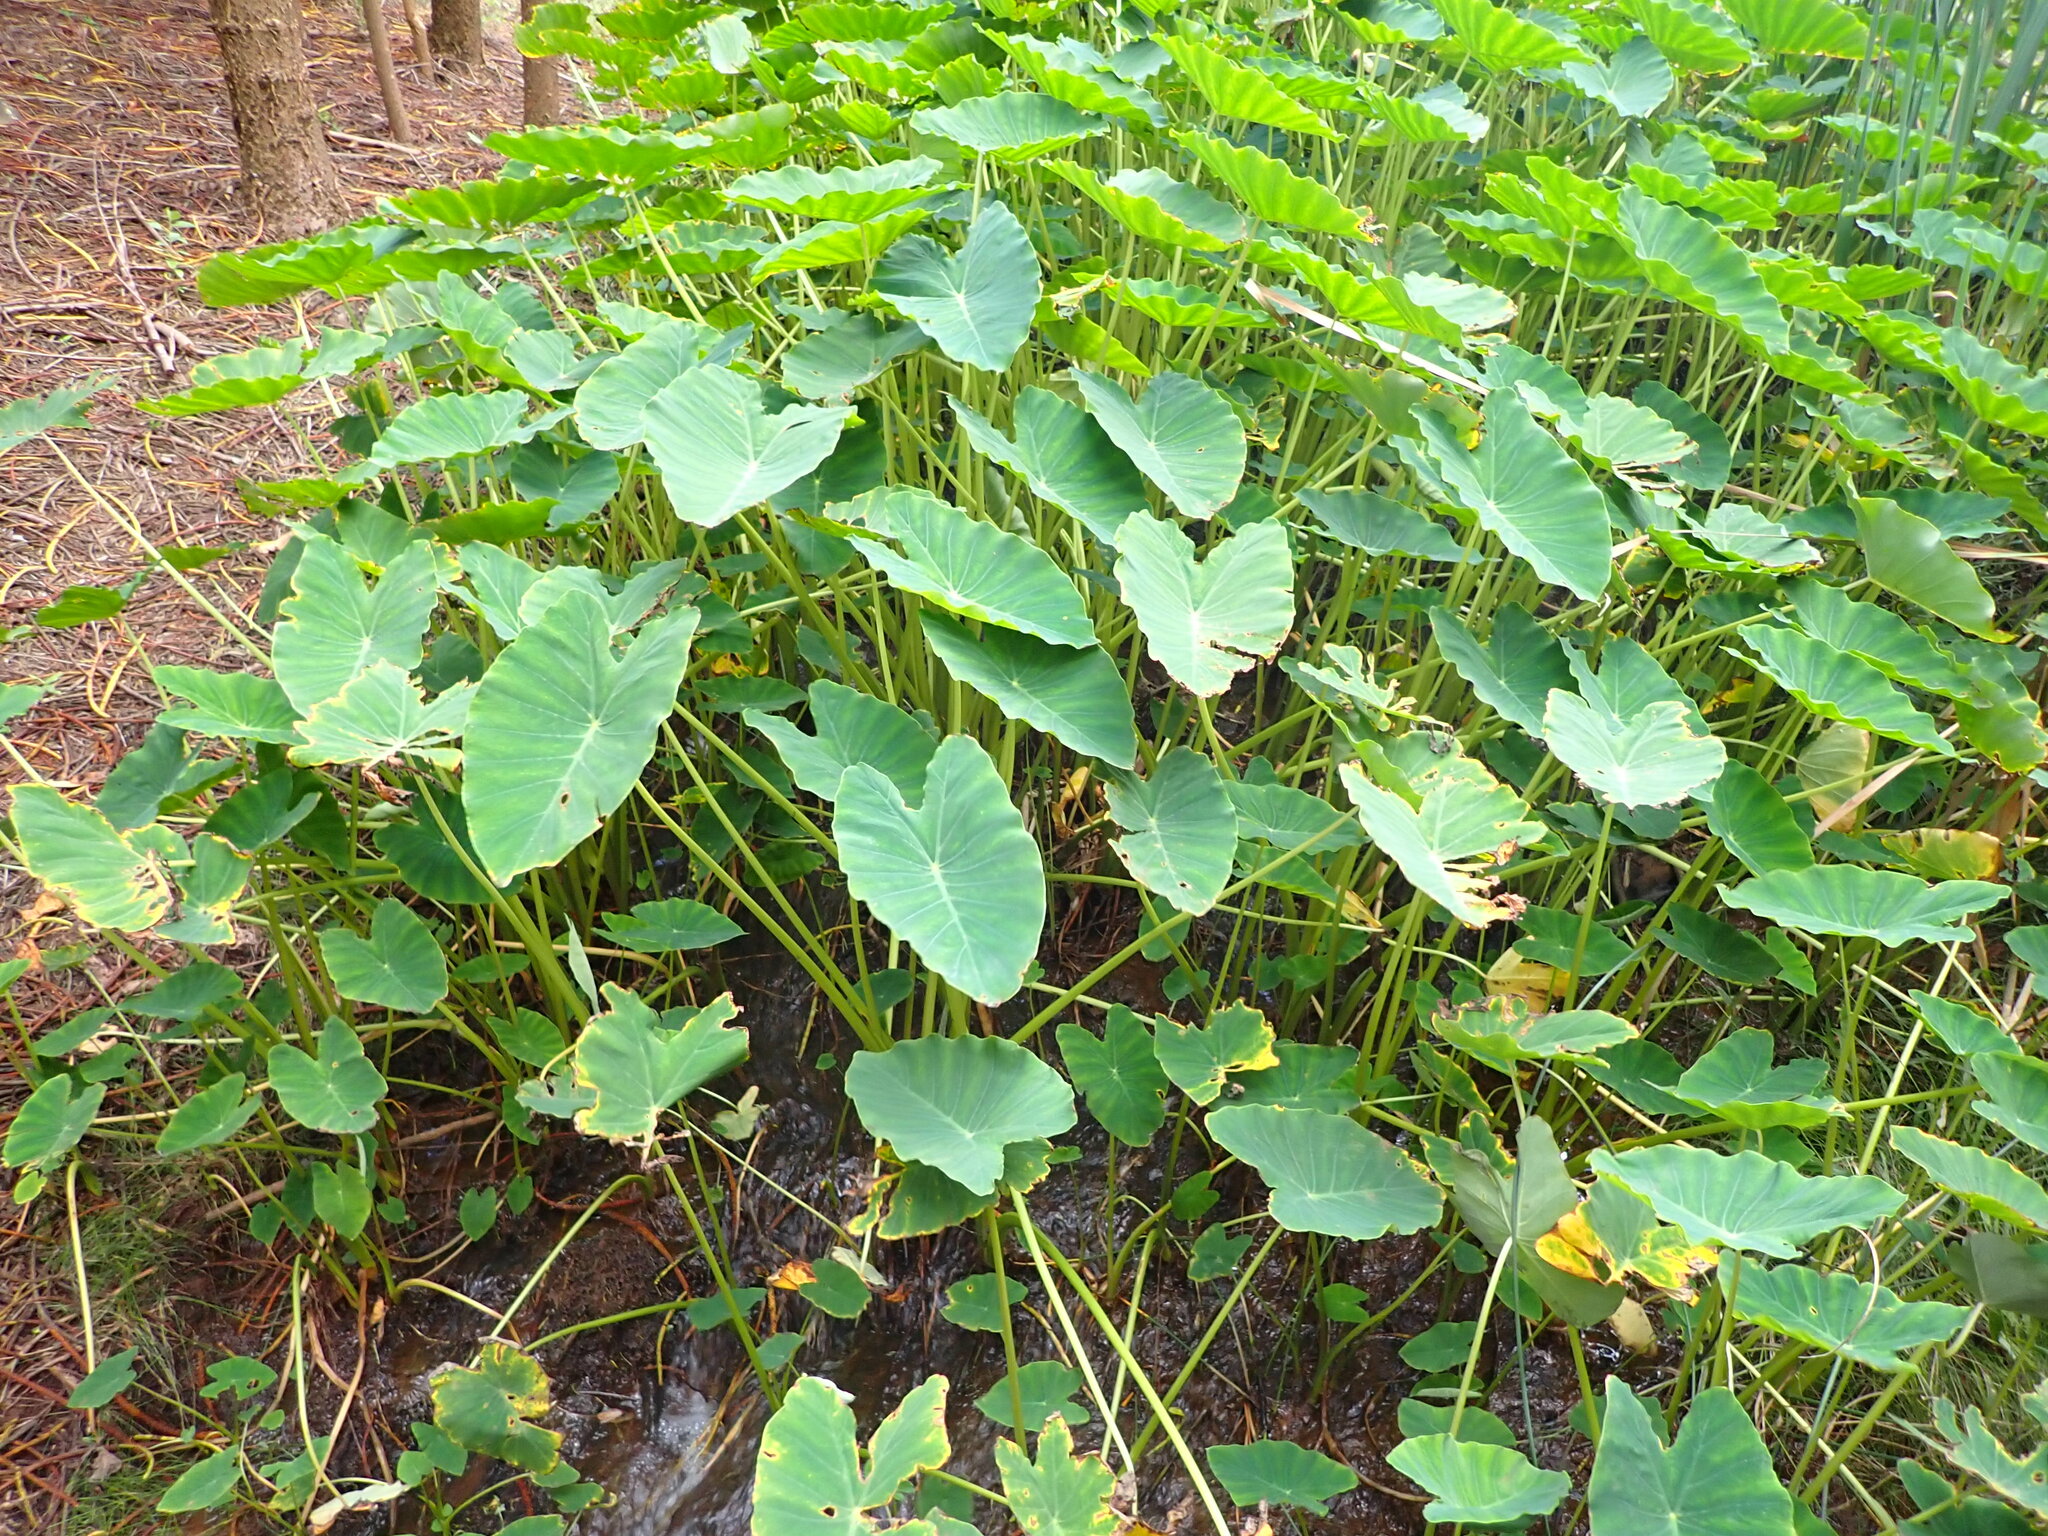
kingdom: Plantae
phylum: Tracheophyta
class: Liliopsida
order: Alismatales
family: Araceae
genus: Colocasia
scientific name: Colocasia esculenta
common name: Taro
